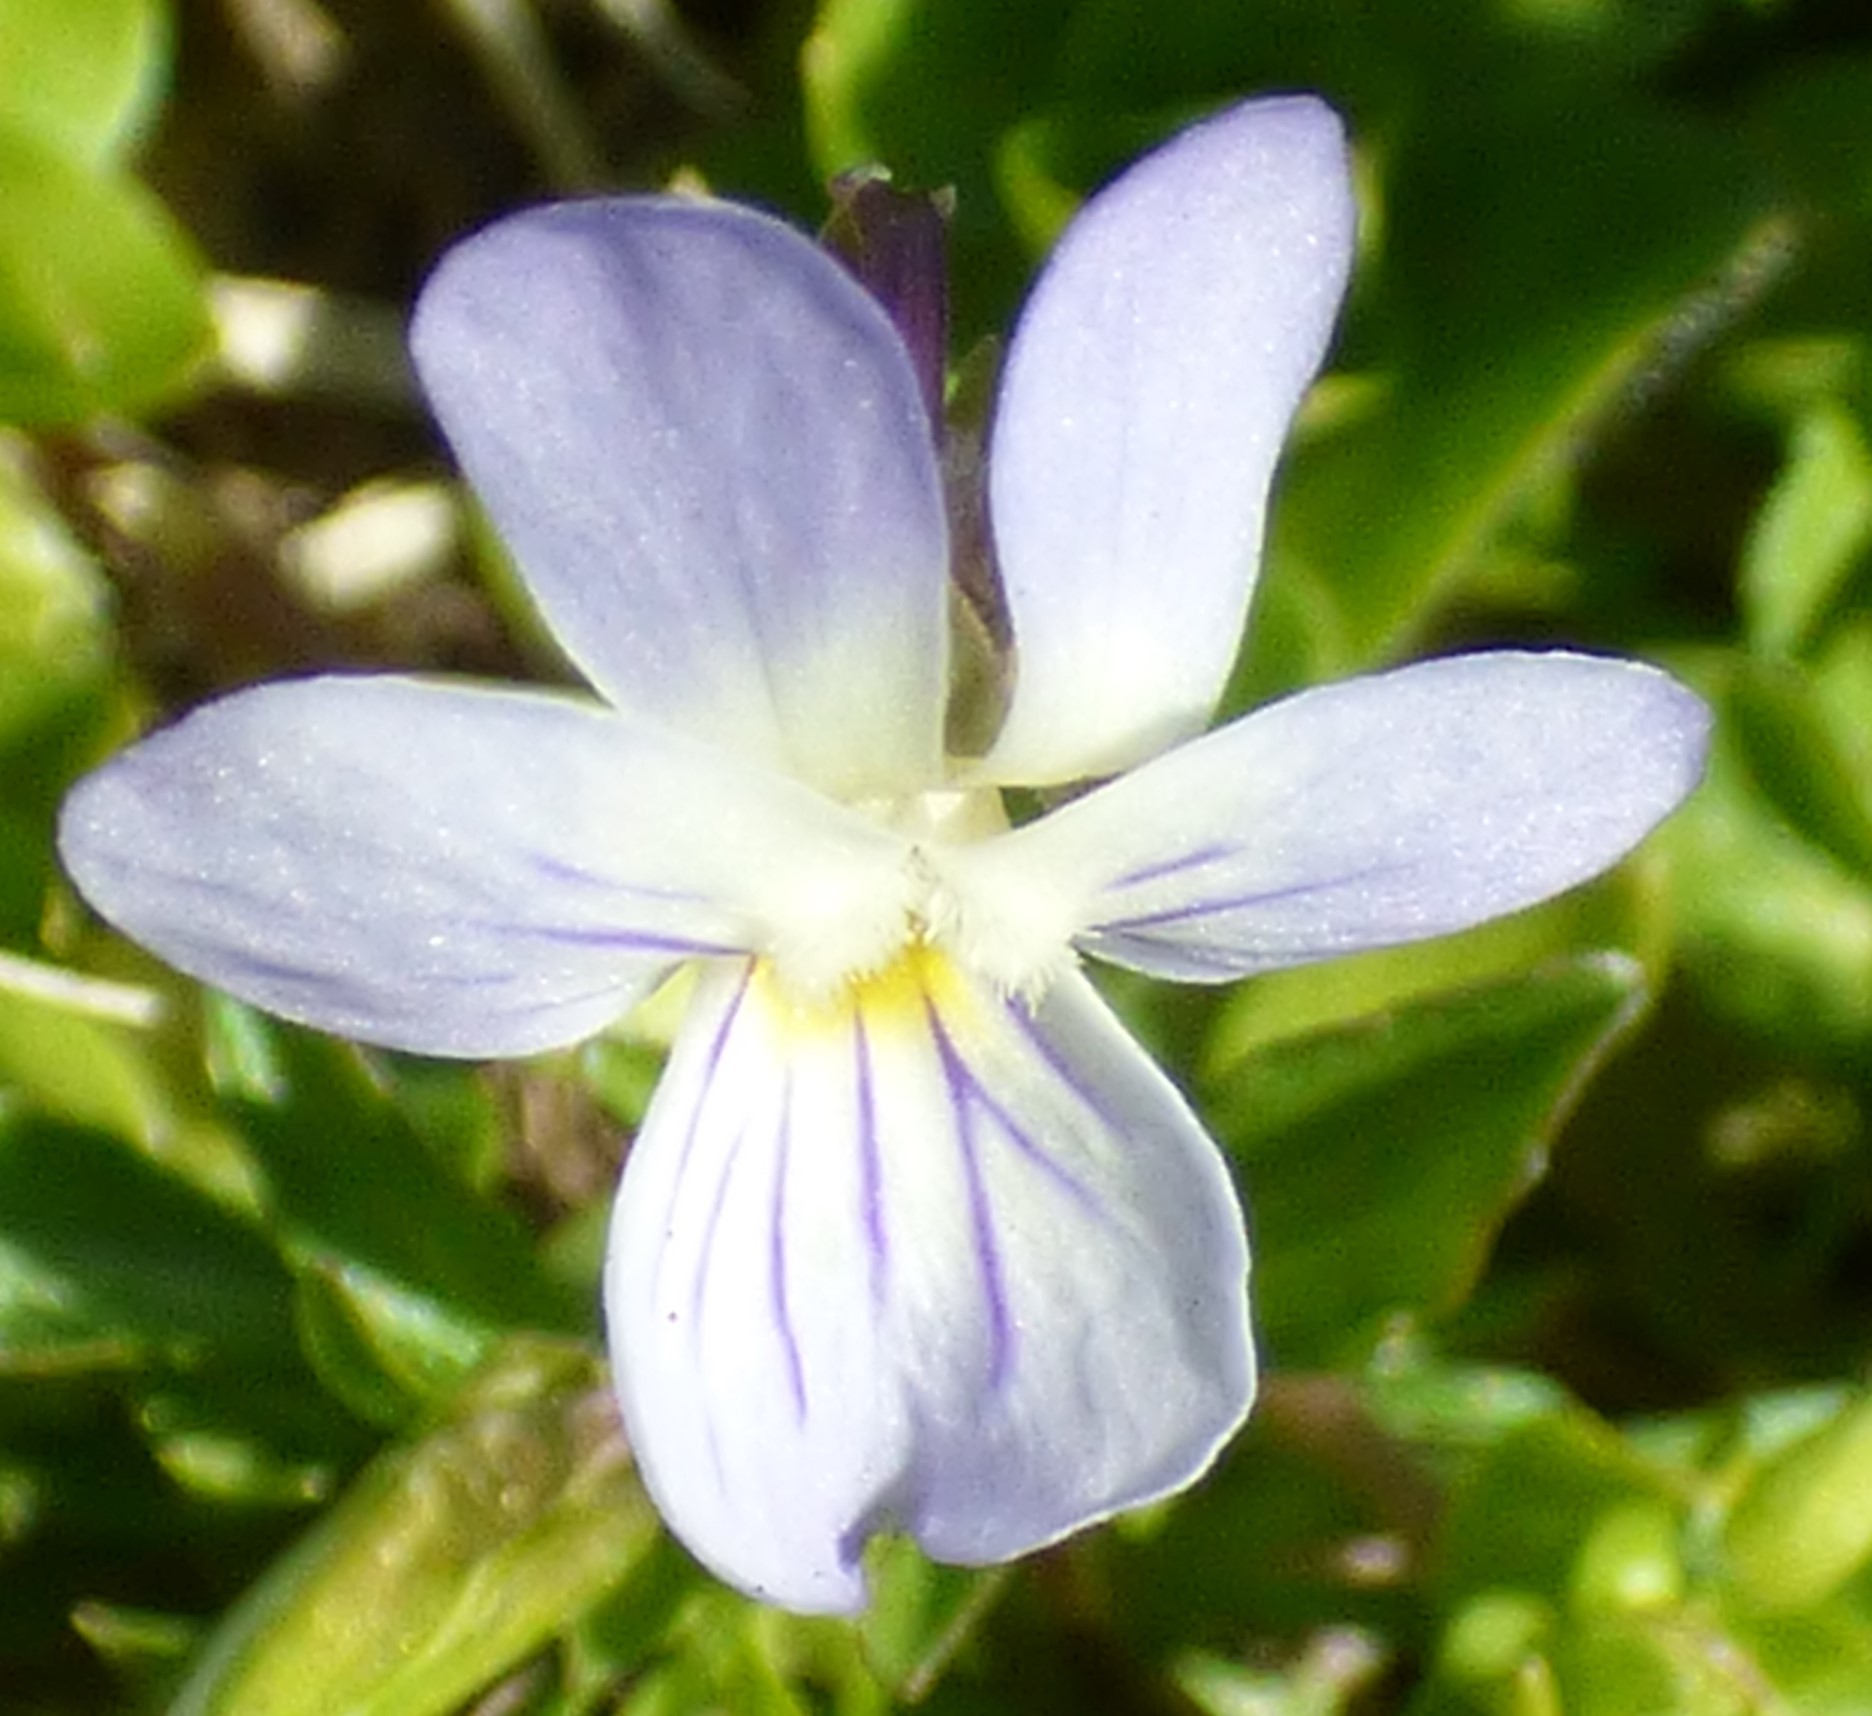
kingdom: Plantae
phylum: Tracheophyta
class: Magnoliopsida
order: Malpighiales
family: Violaceae
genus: Viola
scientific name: Viola rafinesquei
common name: American field pansy
